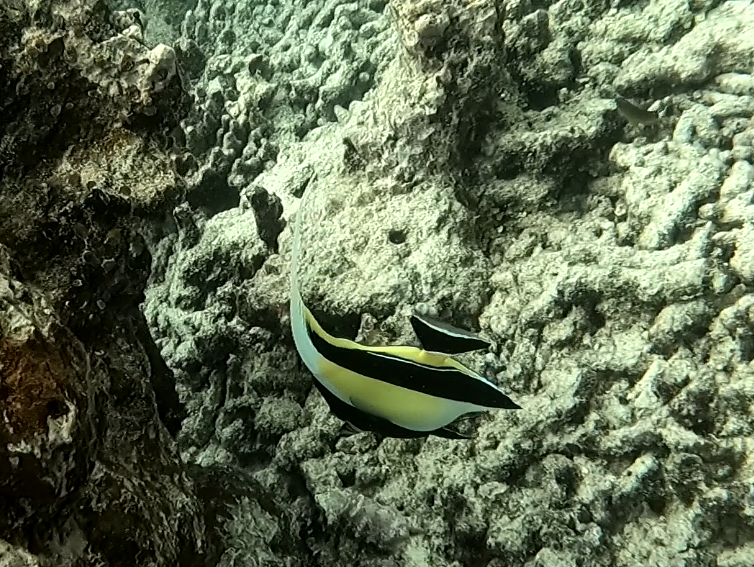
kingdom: Animalia
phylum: Chordata
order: Perciformes
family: Zanclidae
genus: Zanclus
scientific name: Zanclus cornutus
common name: Moorish idol
